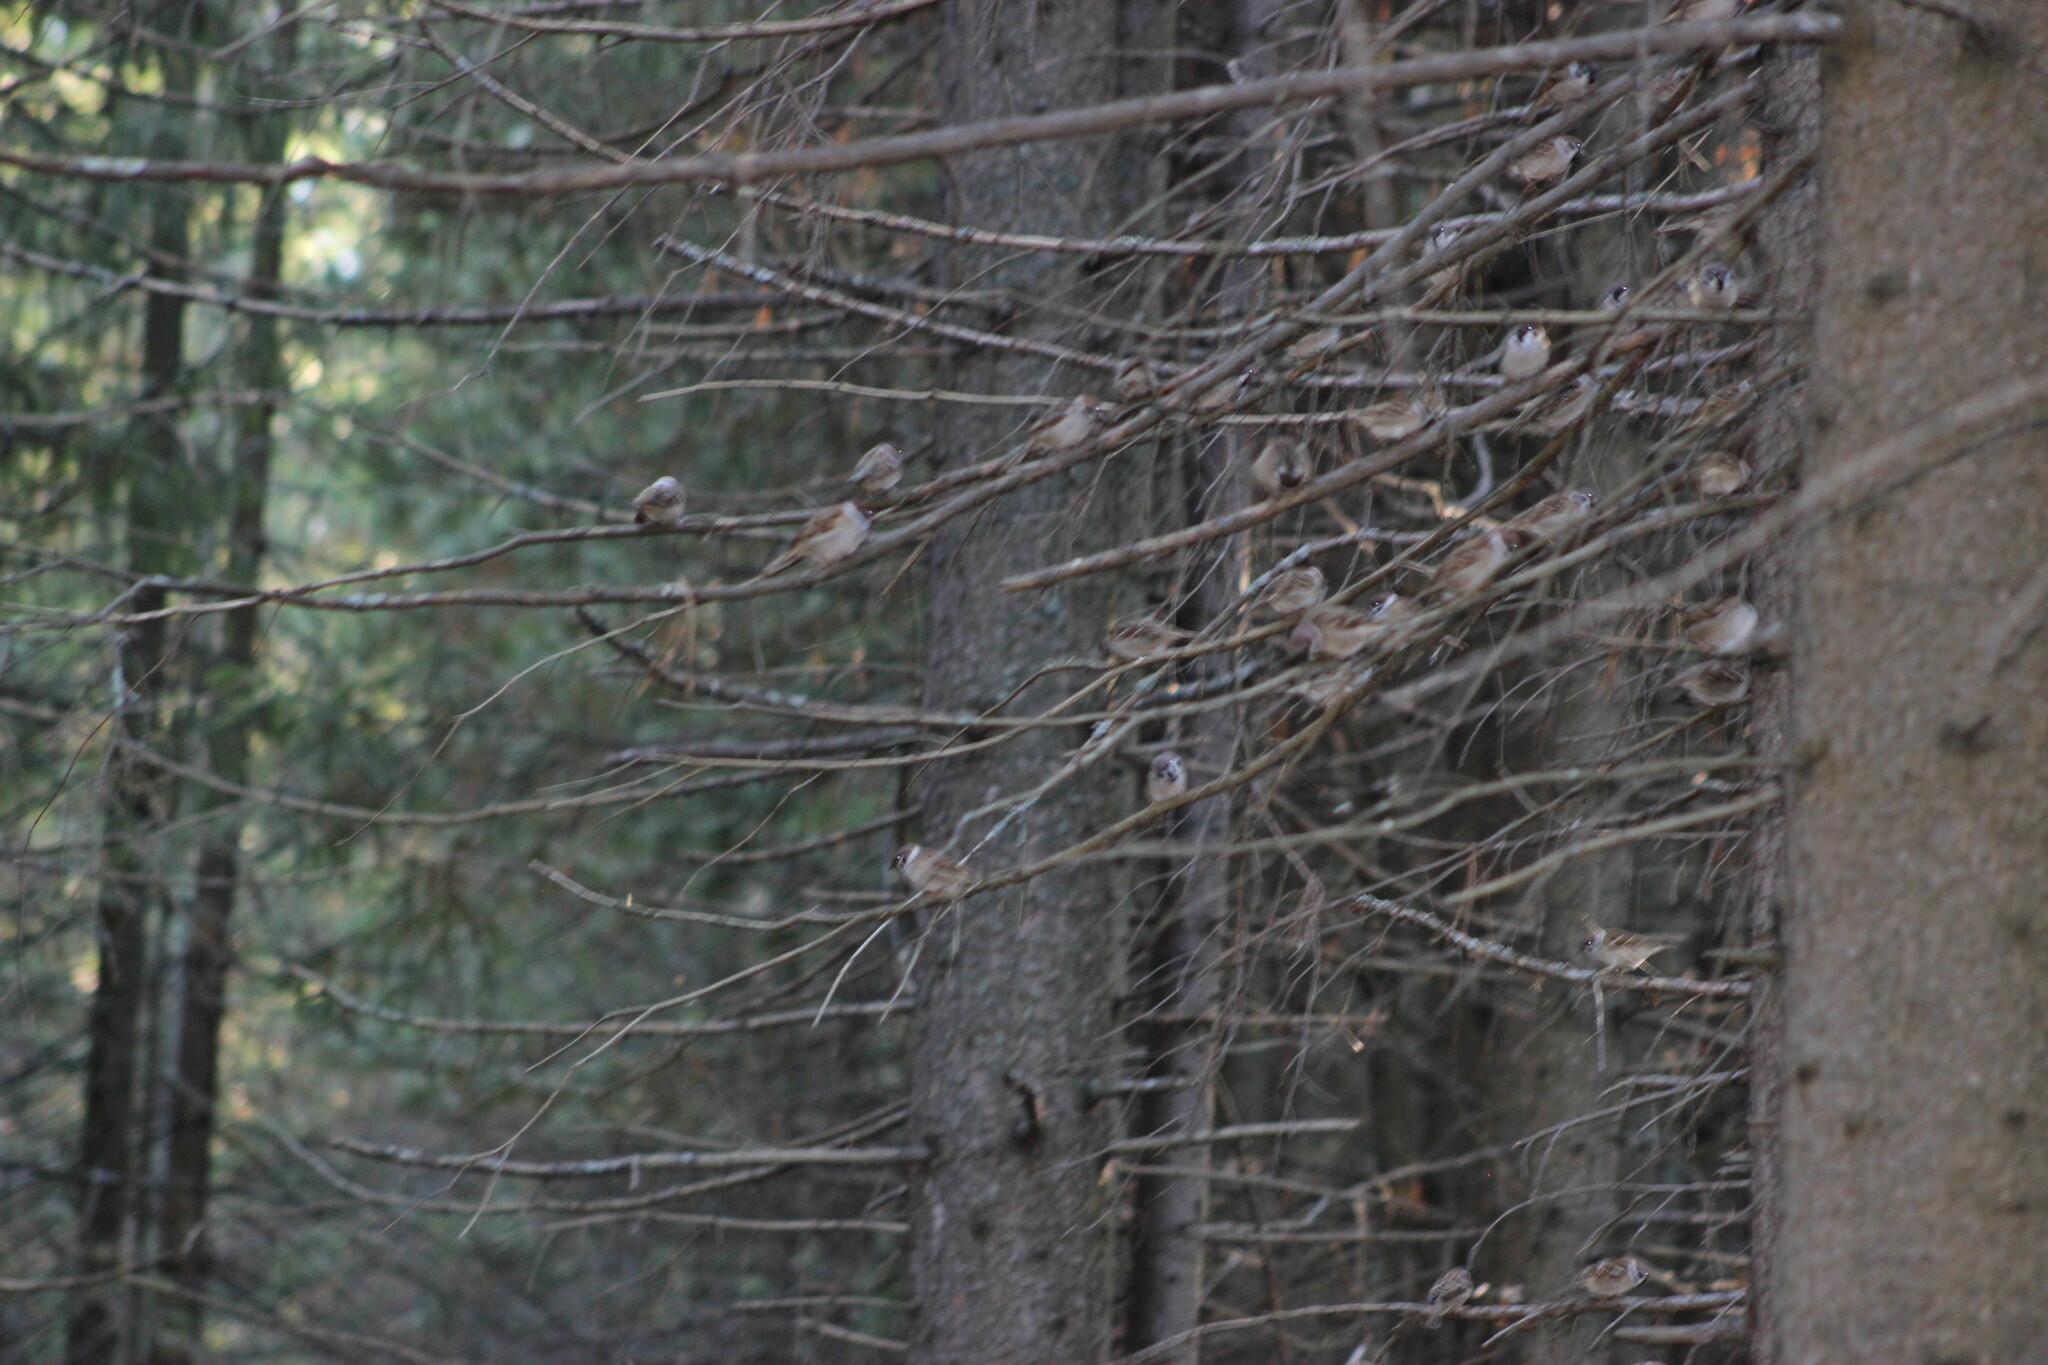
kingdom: Animalia
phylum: Chordata
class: Aves
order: Passeriformes
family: Passeridae
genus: Passer
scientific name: Passer montanus
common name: Eurasian tree sparrow
